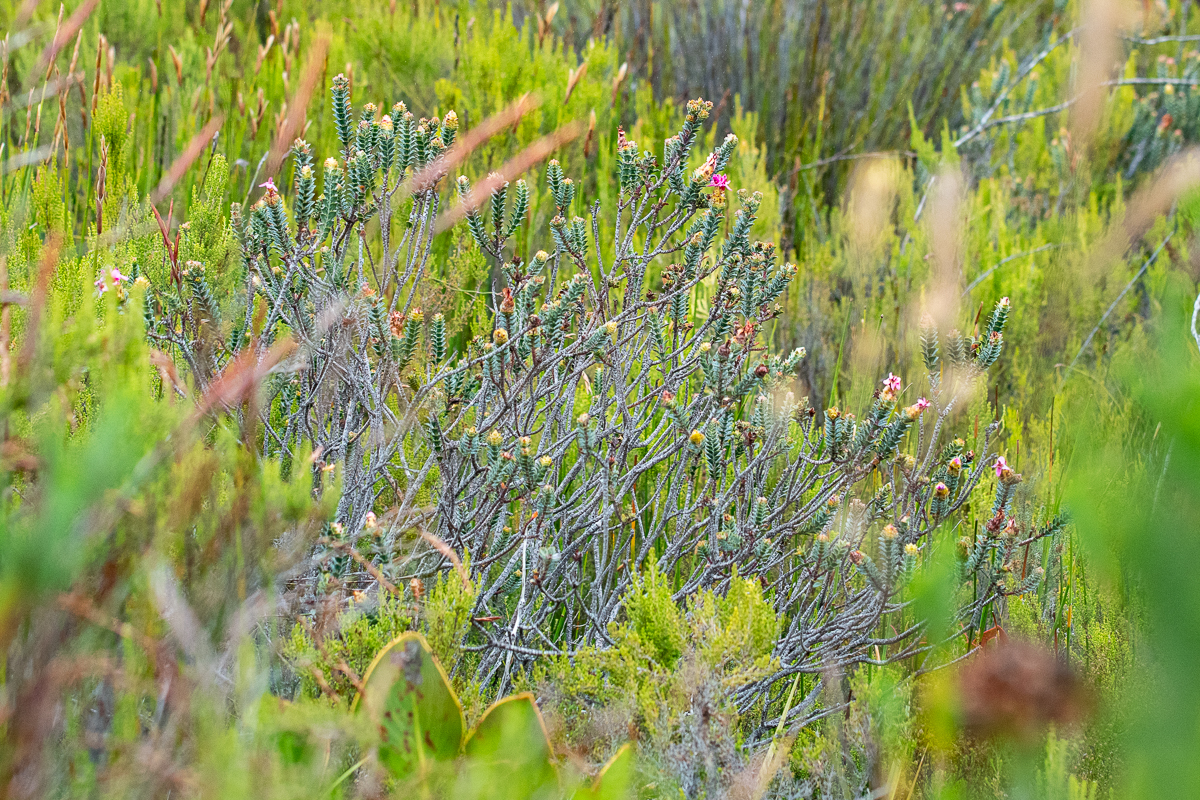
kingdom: Plantae
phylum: Tracheophyta
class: Magnoliopsida
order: Myrtales
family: Penaeaceae
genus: Saltera
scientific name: Saltera sarcocolla
